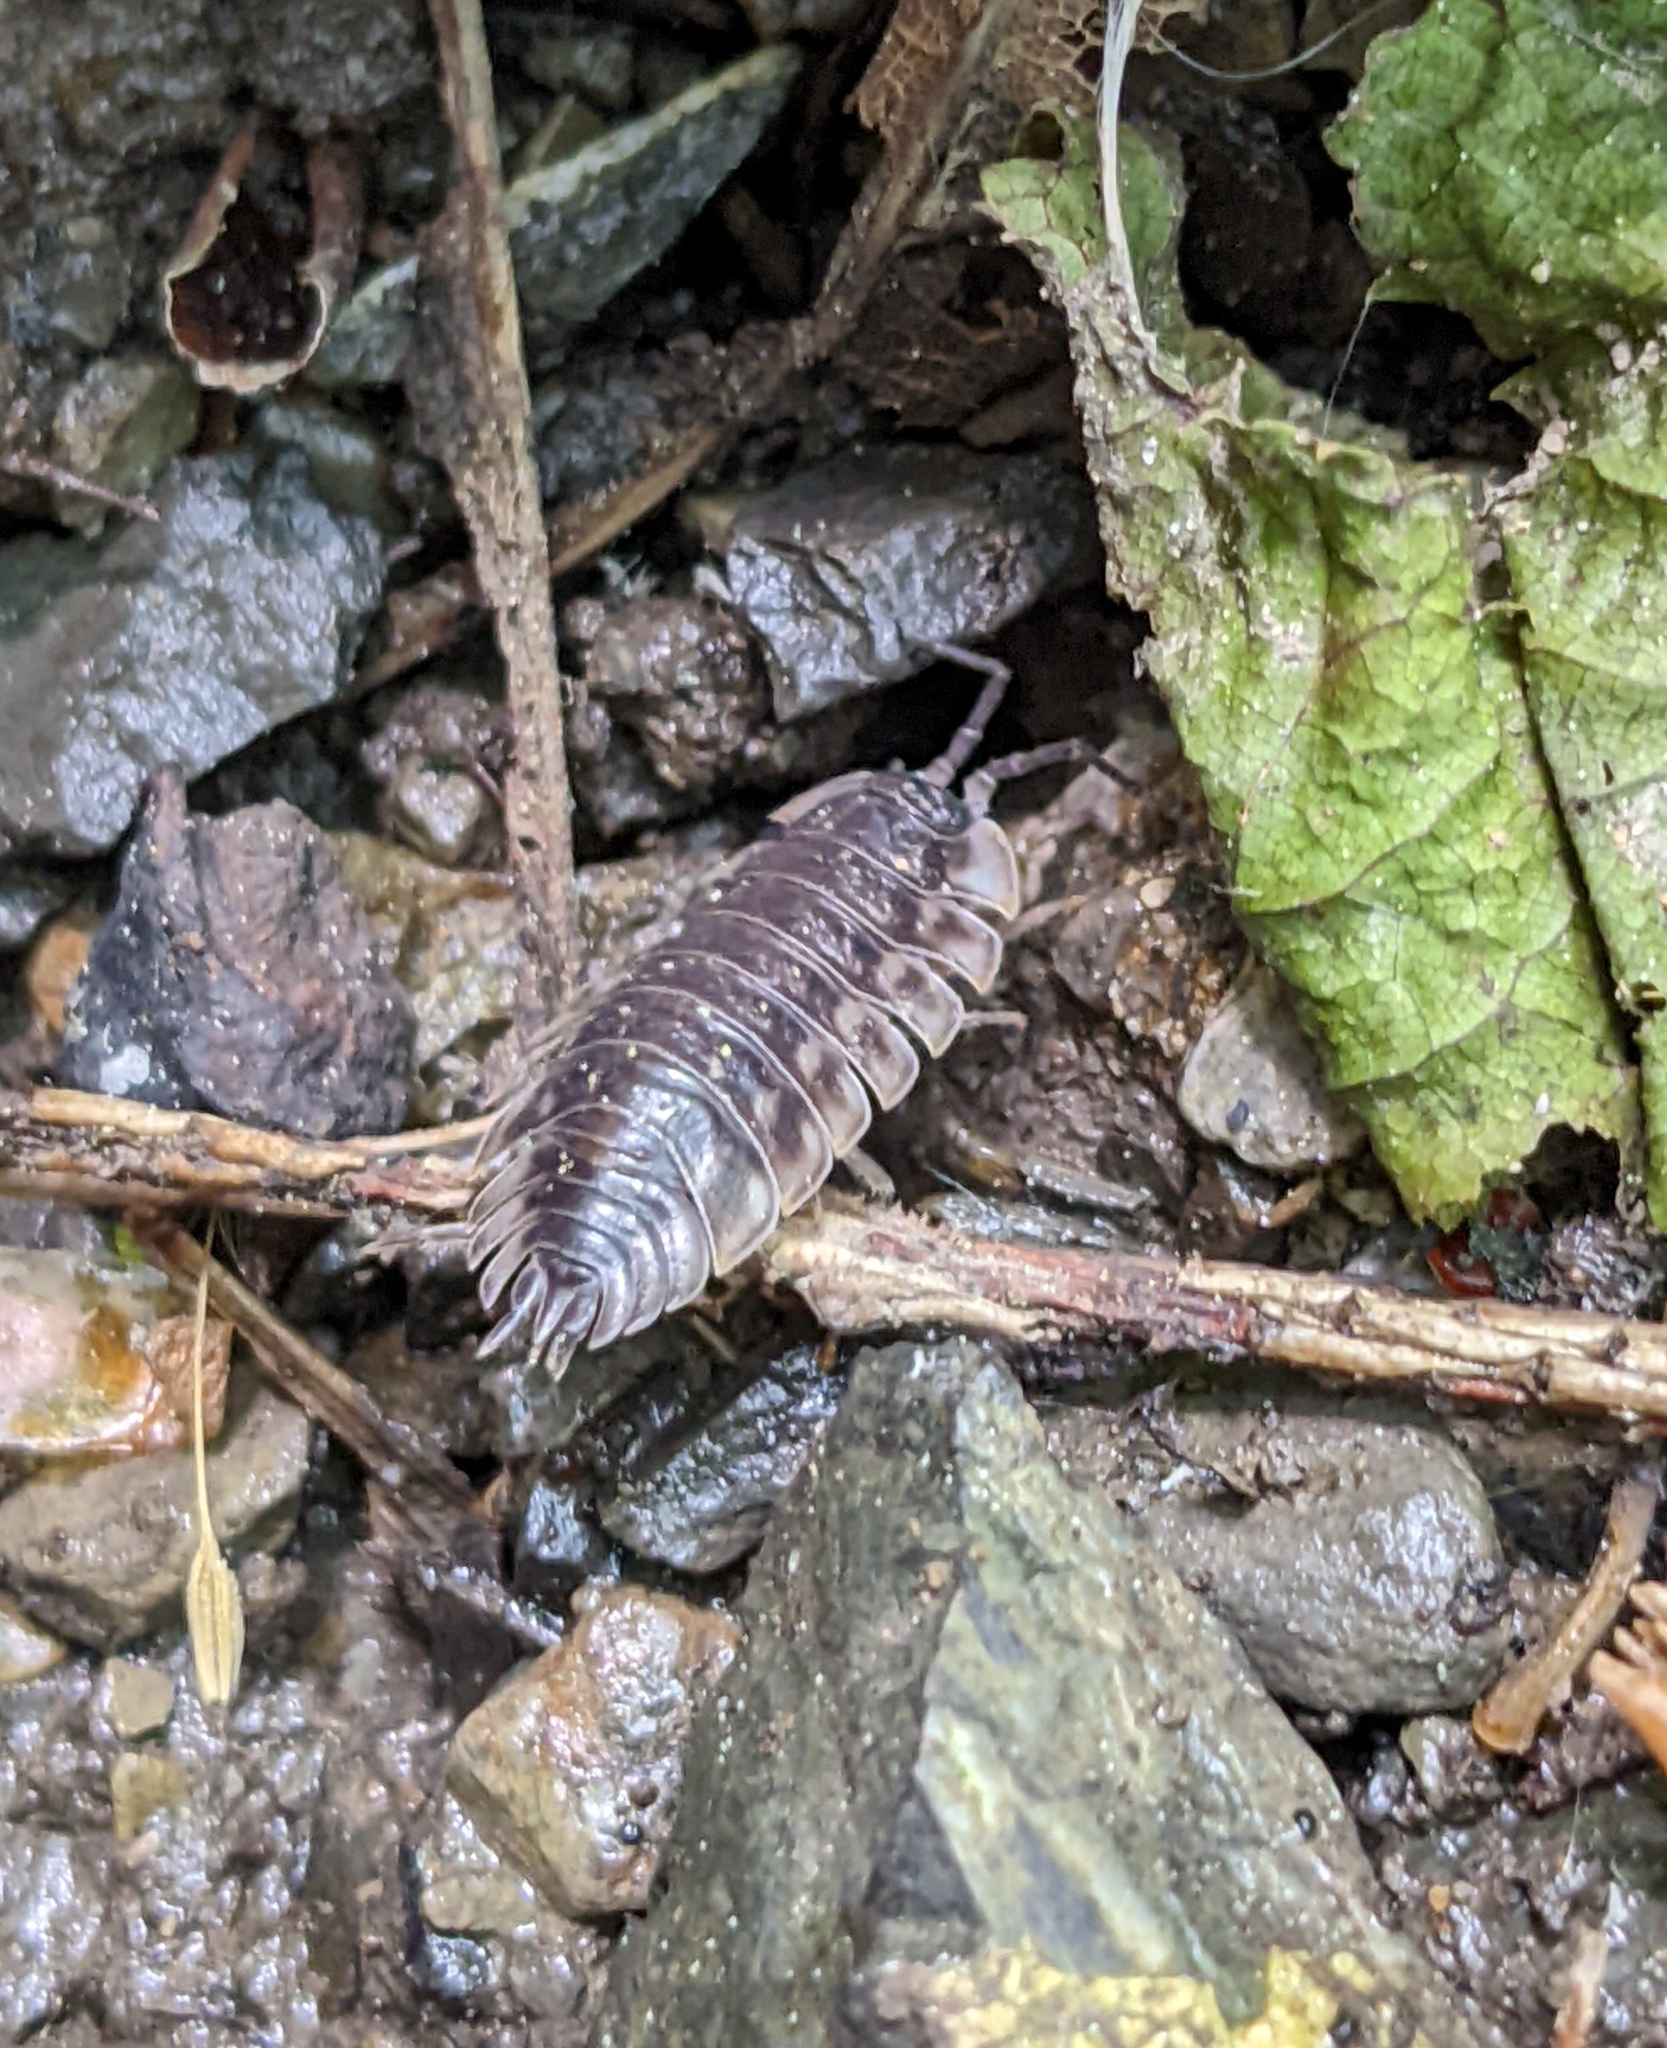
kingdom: Animalia
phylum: Arthropoda
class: Malacostraca
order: Isopoda
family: Oniscidae
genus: Oniscus
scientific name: Oniscus asellus
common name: Common shiny woodlouse
